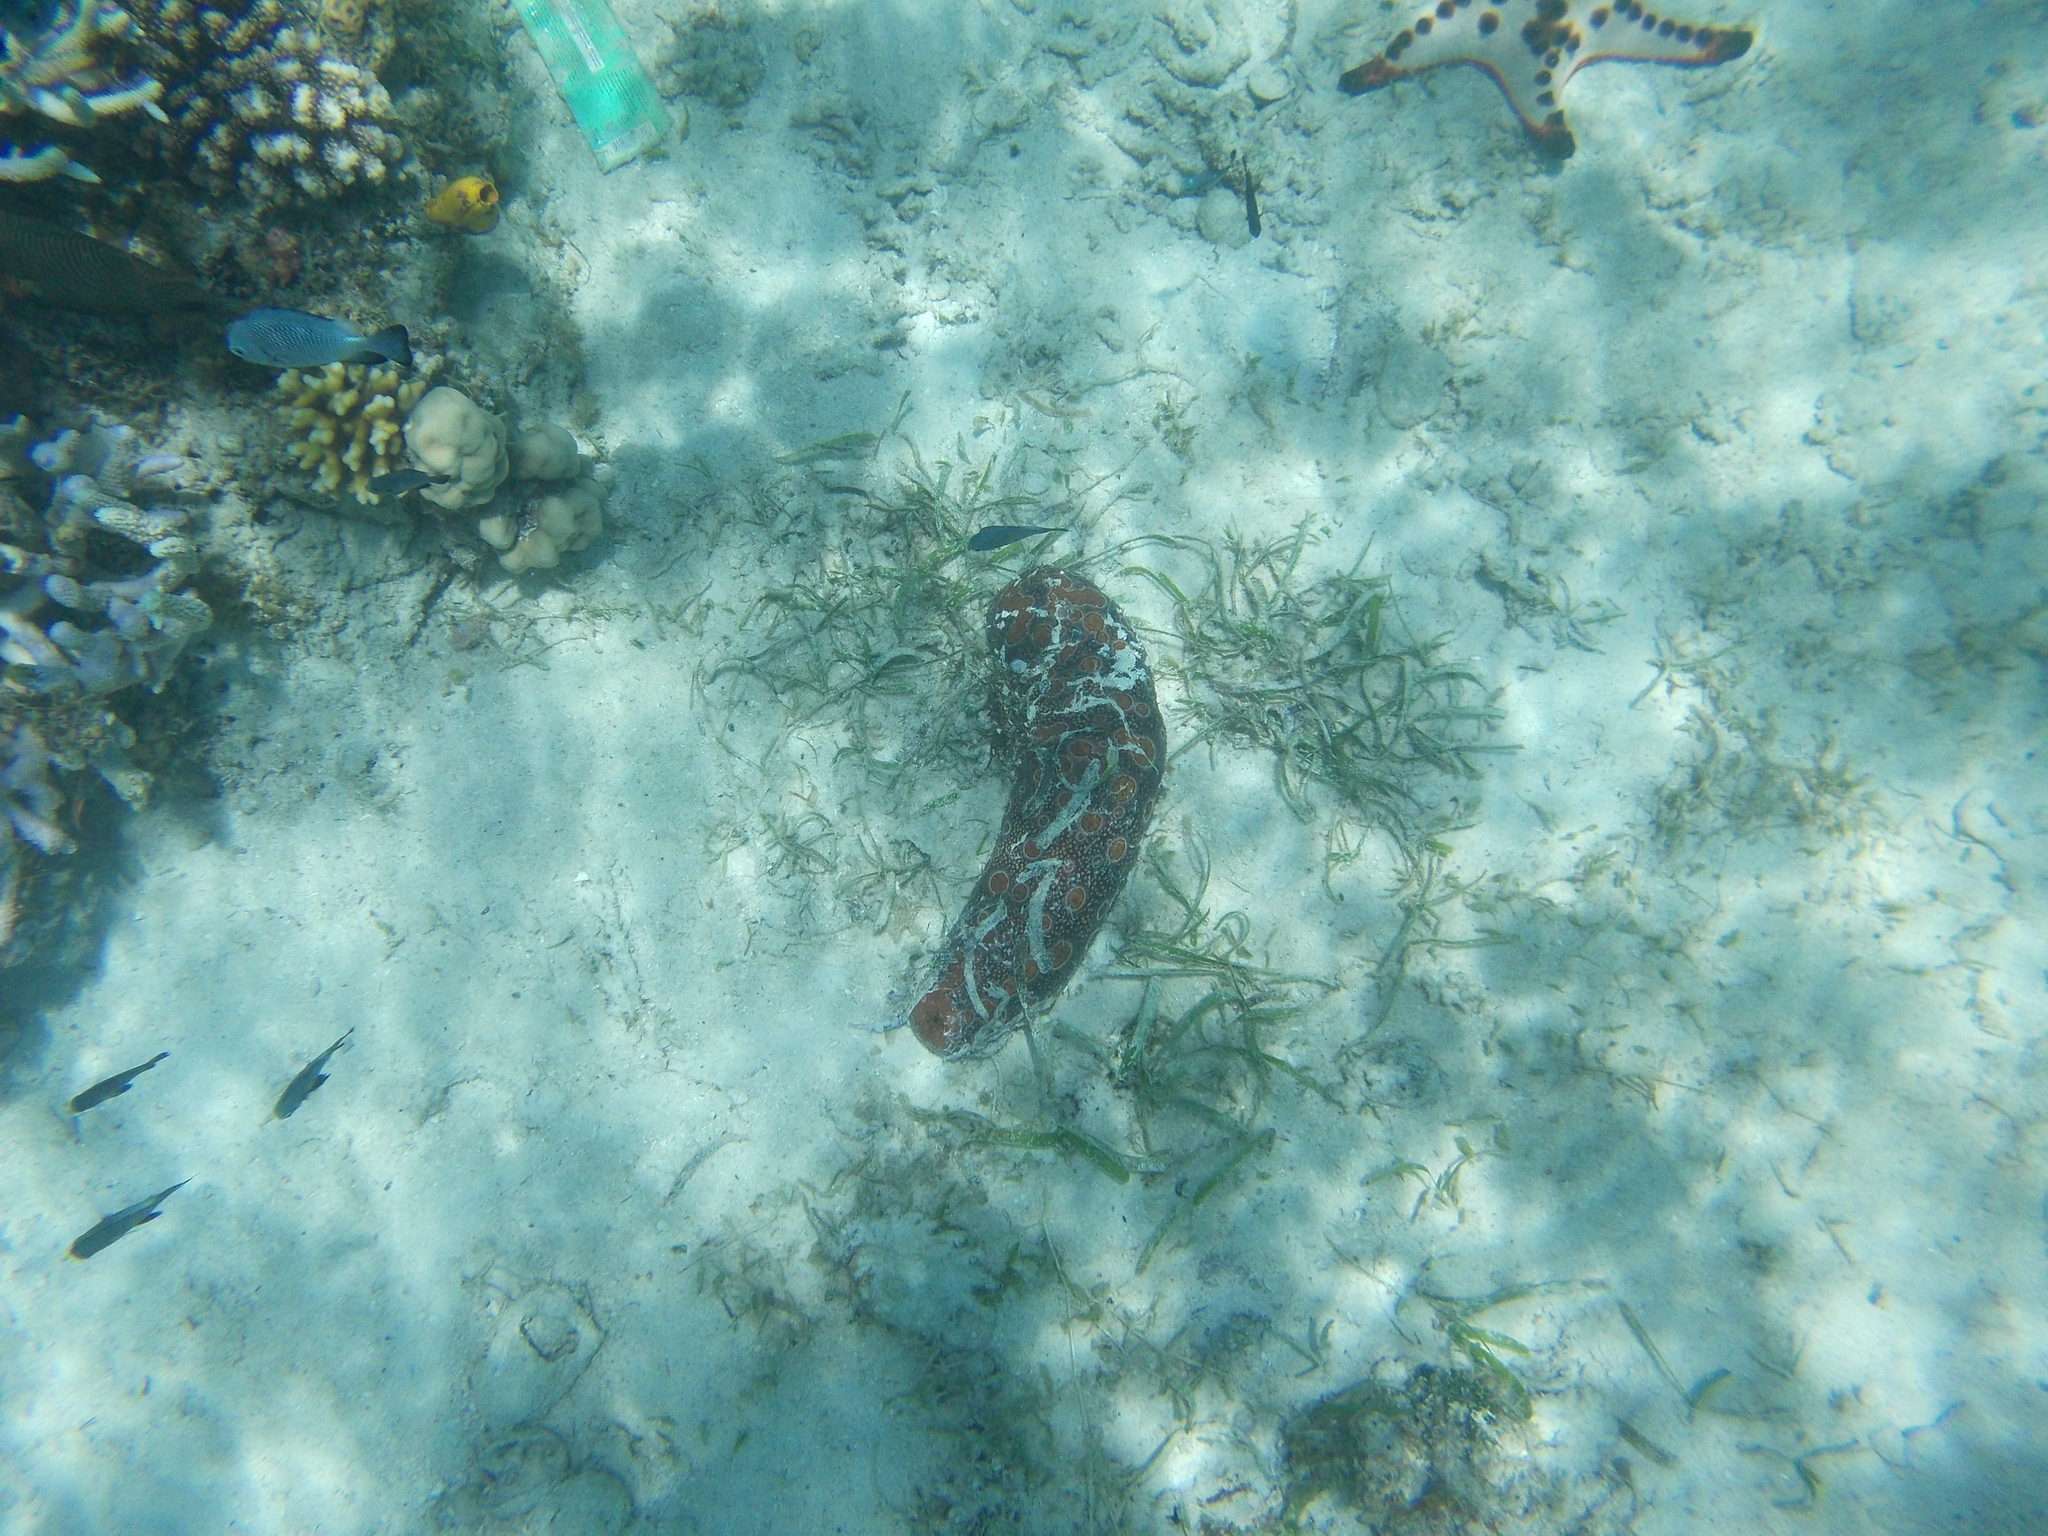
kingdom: Animalia
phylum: Echinodermata
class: Holothuroidea
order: Holothuriida
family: Holothuriidae
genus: Bohadschia
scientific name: Bohadschia argus
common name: Leopardfish
